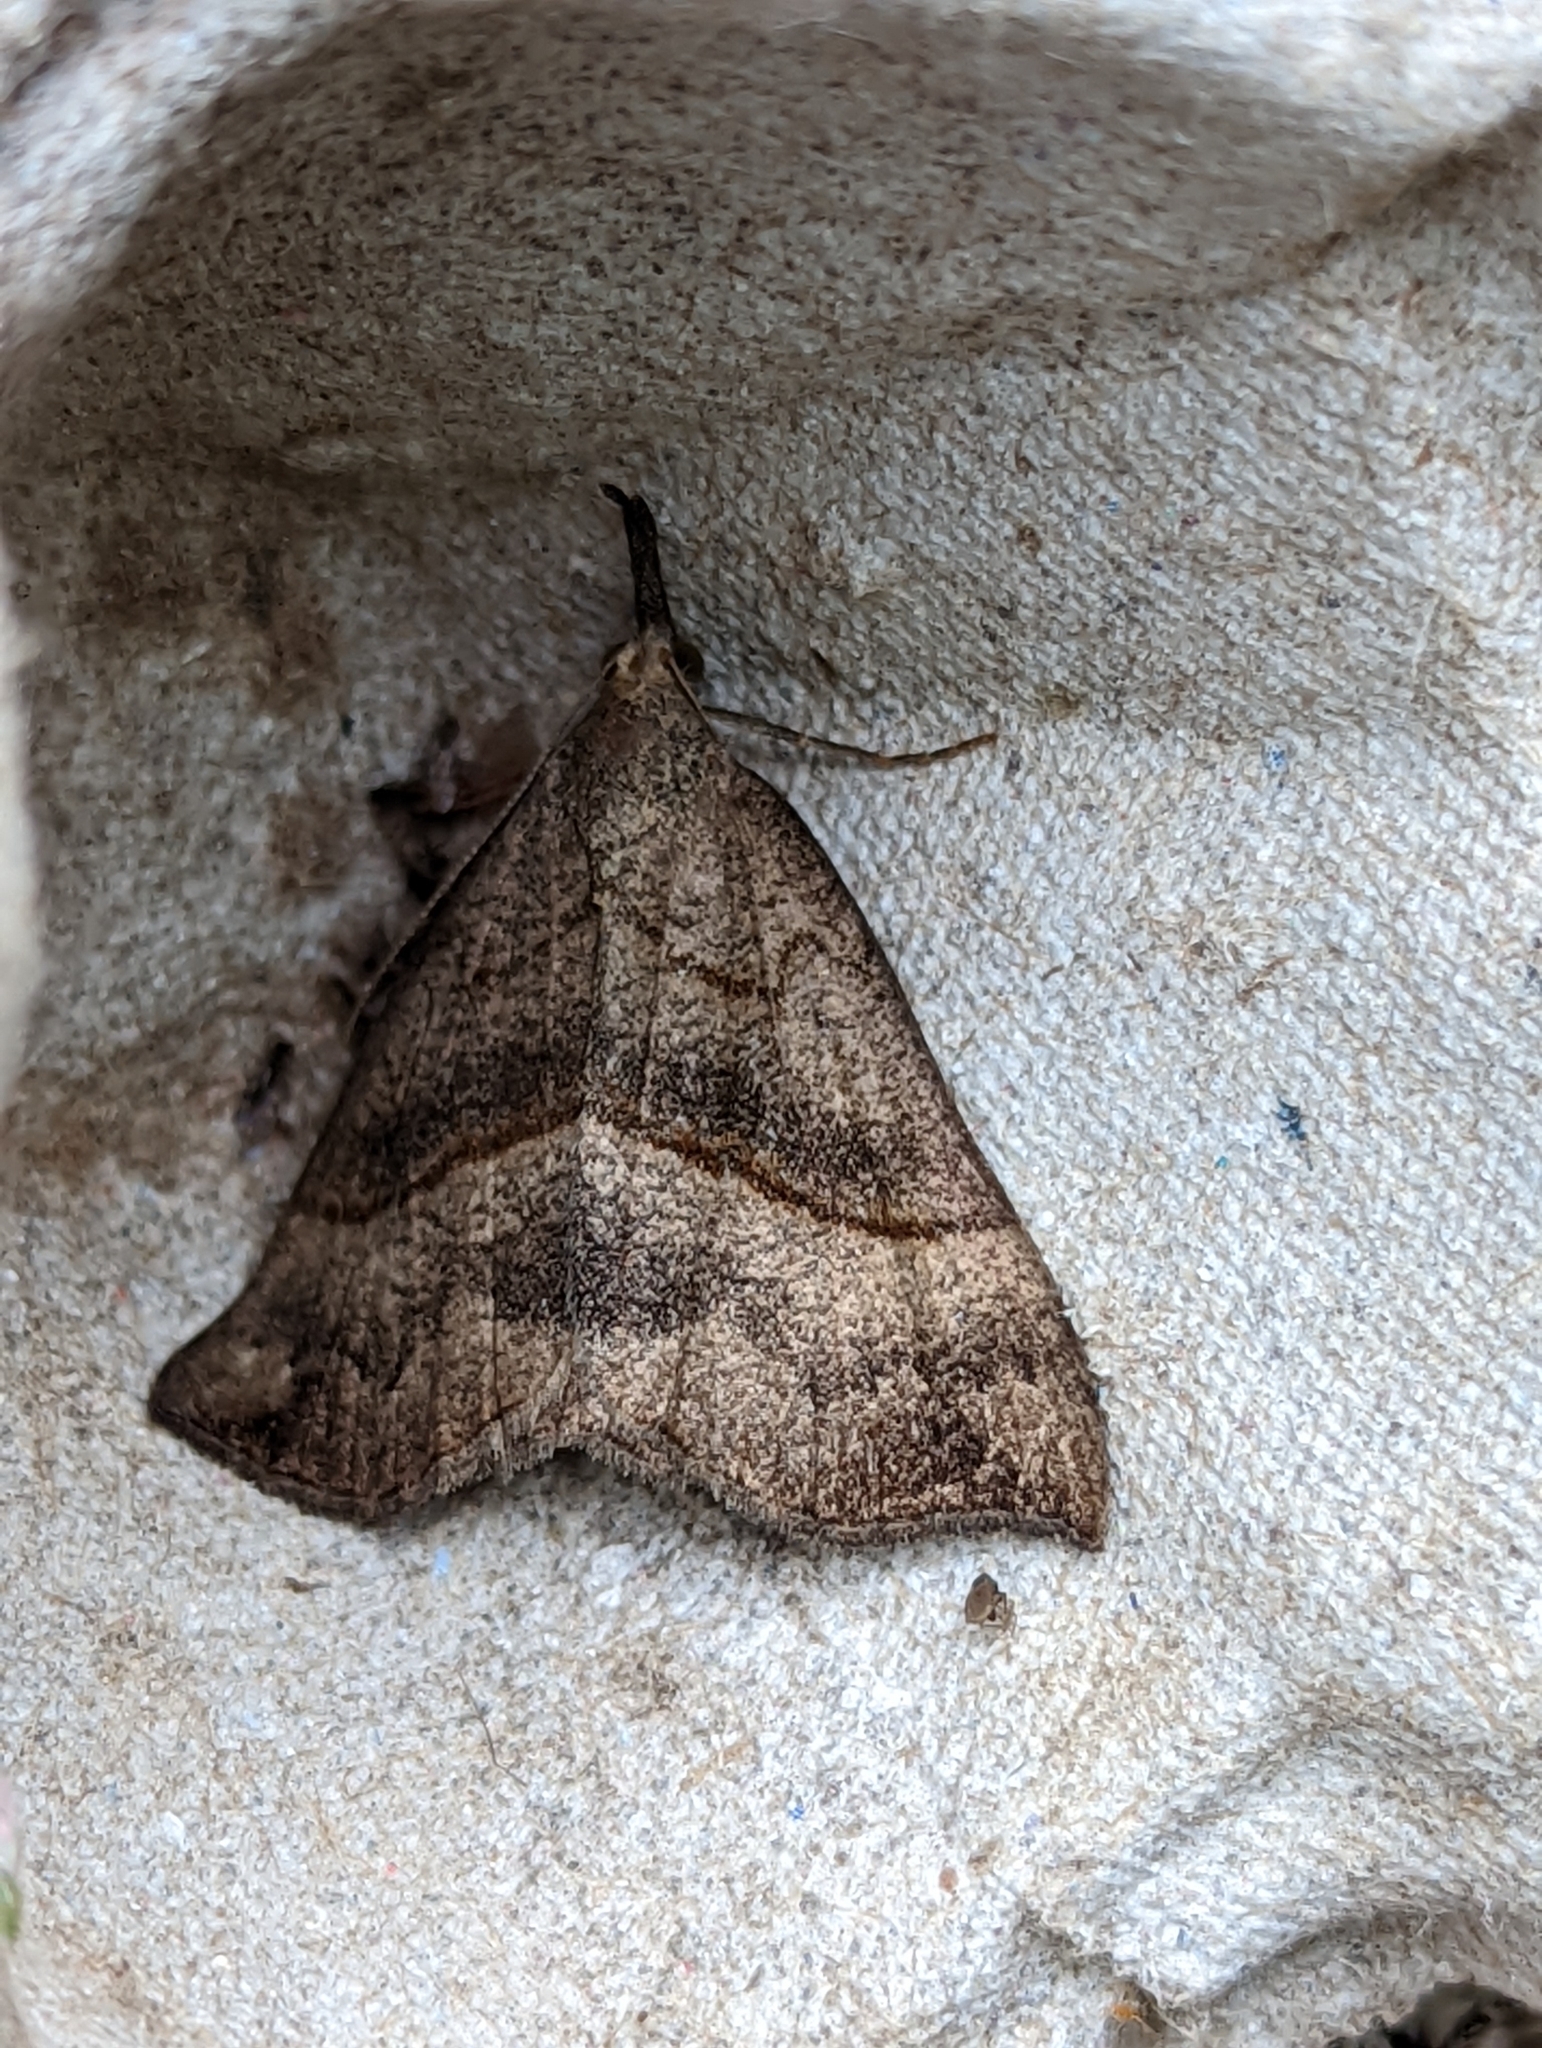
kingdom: Animalia
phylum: Arthropoda
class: Insecta
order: Lepidoptera
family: Erebidae
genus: Hypena
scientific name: Hypena proboscidalis
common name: Snout
